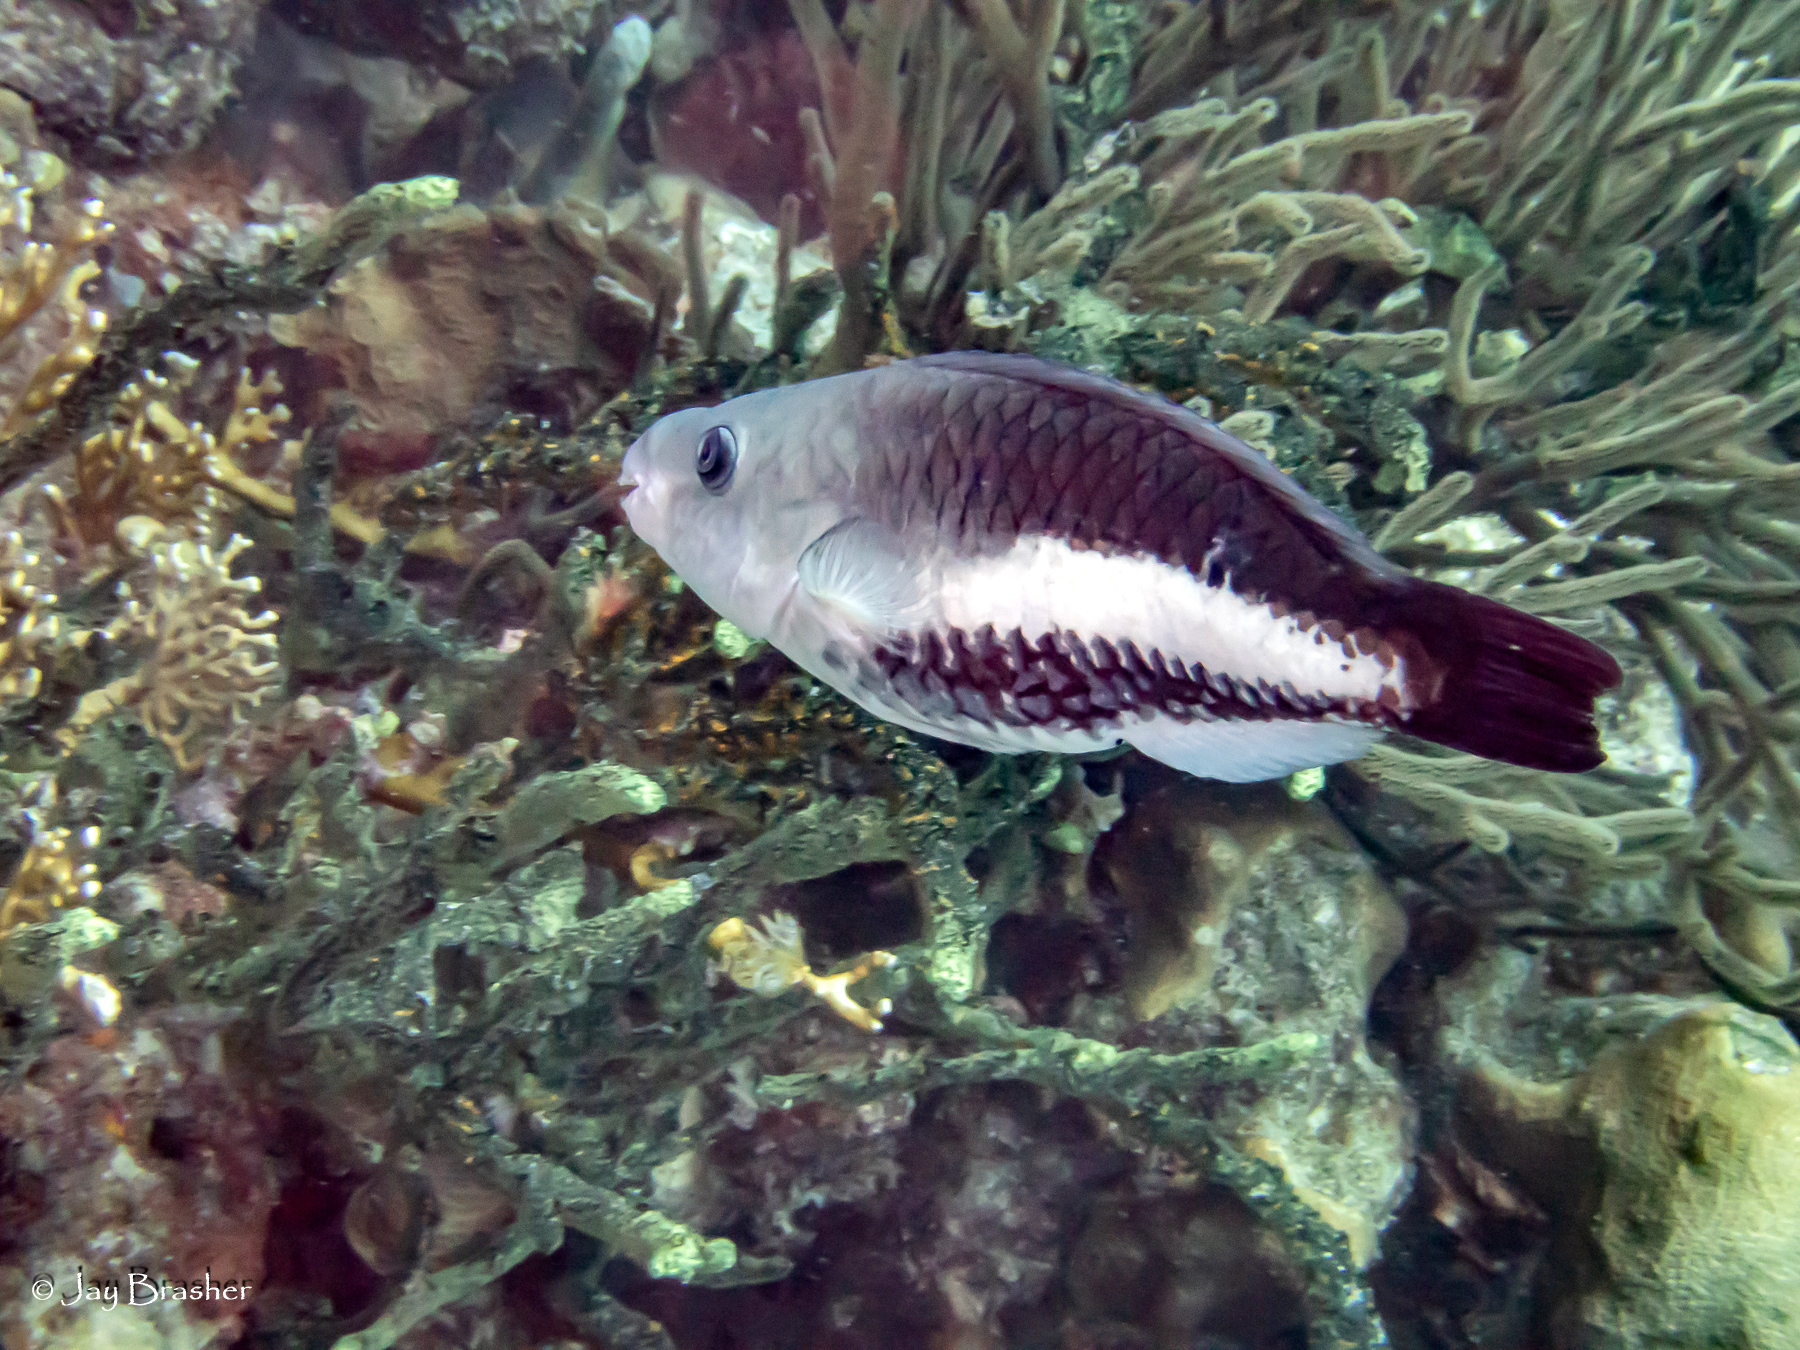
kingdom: Animalia
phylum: Chordata
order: Perciformes
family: Scaridae
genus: Scarus
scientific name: Scarus vetula
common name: Queen parrotfish
